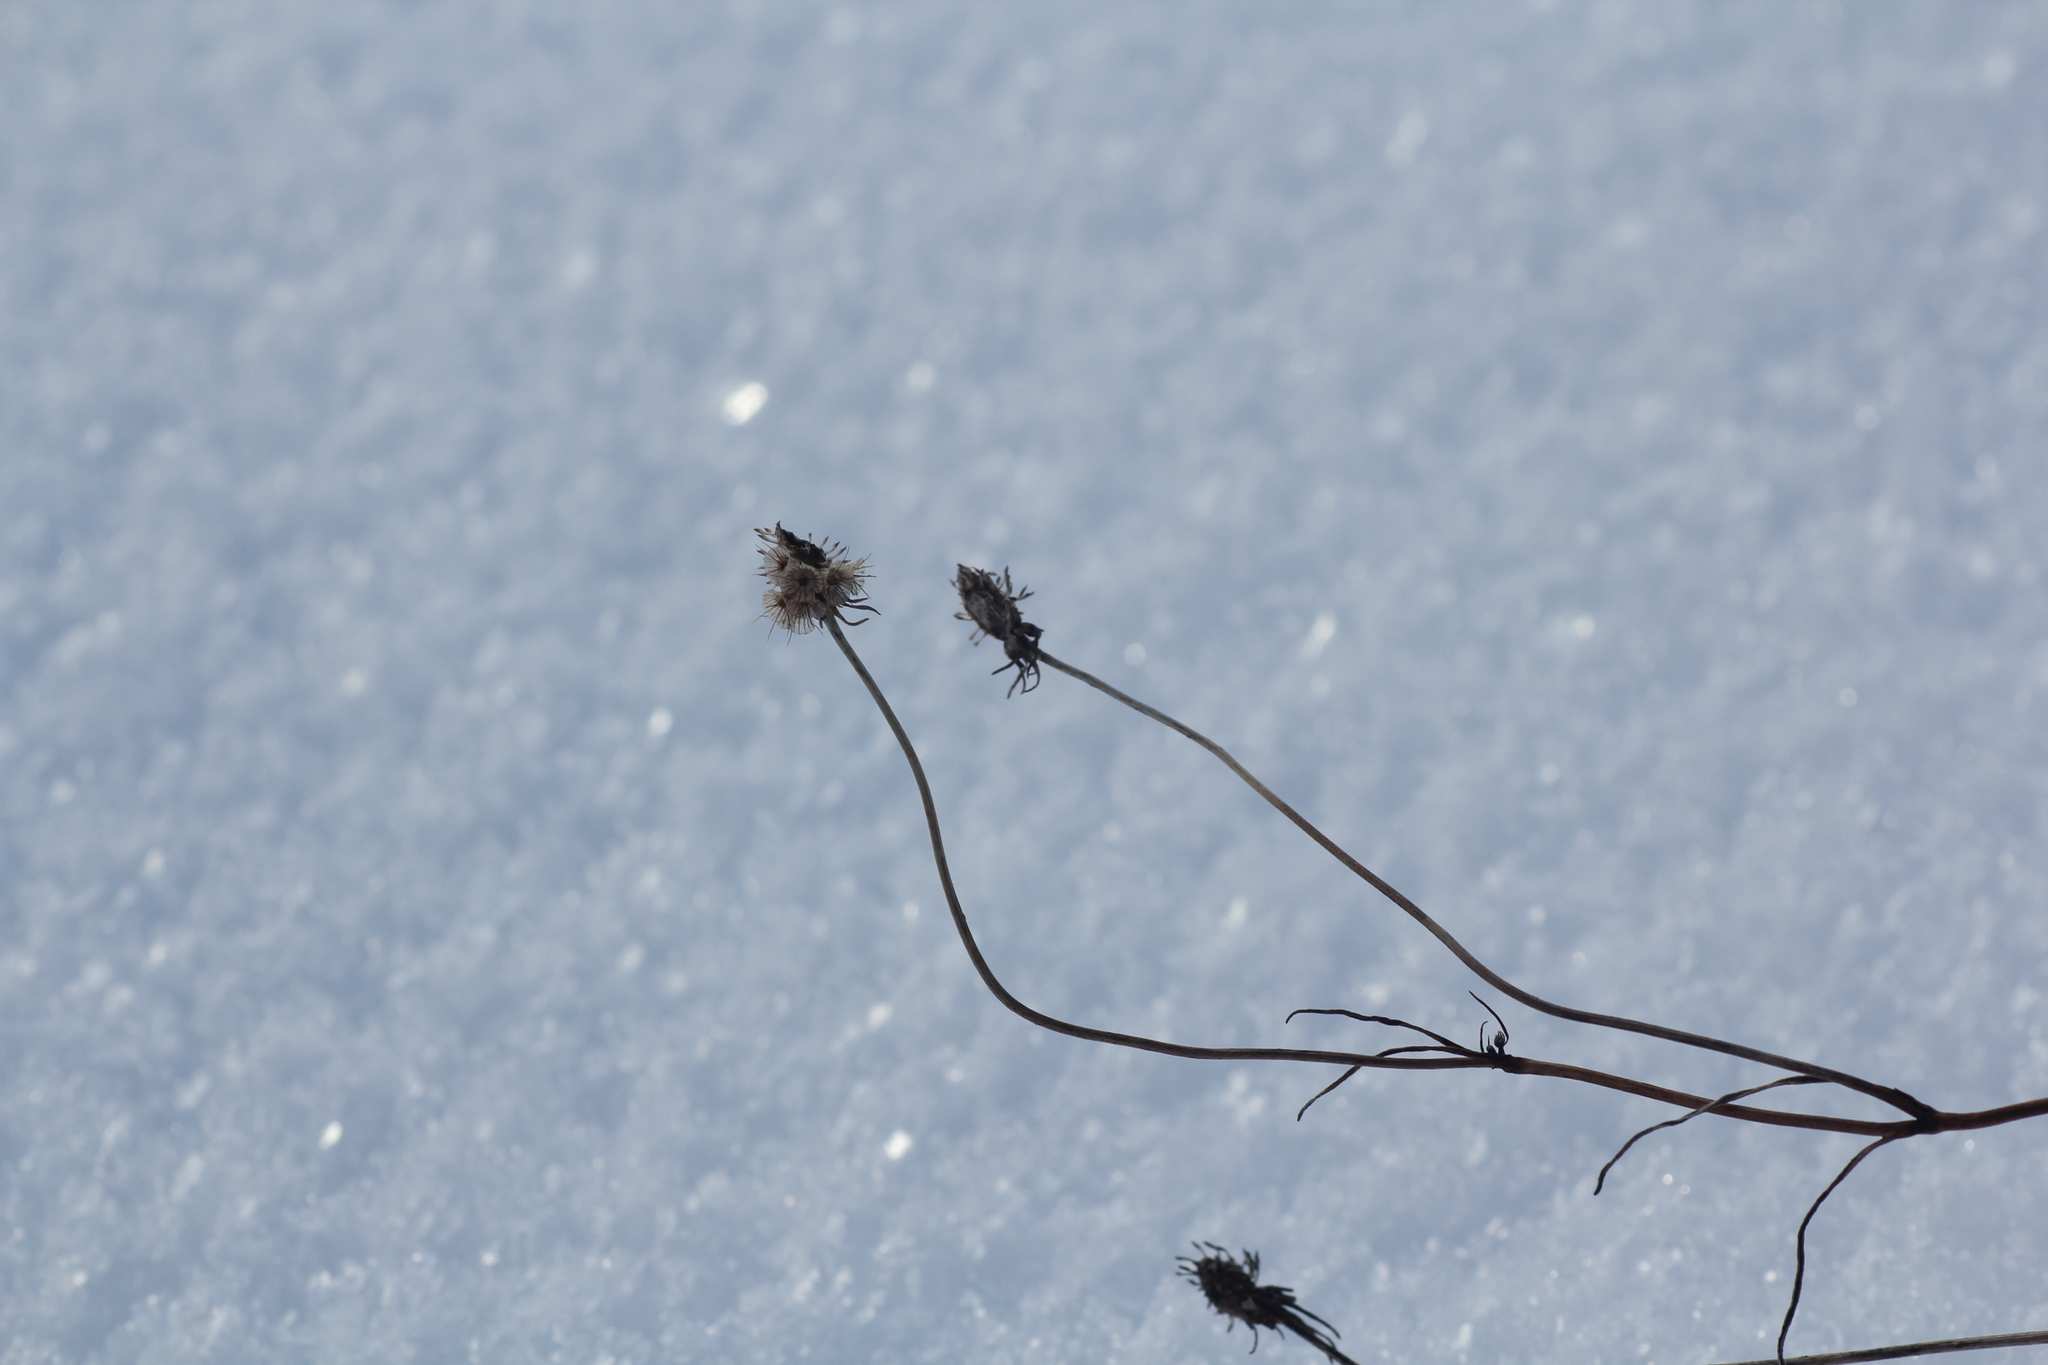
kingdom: Plantae
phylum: Tracheophyta
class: Magnoliopsida
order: Dipsacales
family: Caprifoliaceae
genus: Scabiosa
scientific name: Scabiosa ochroleuca
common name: Cream pincushions
